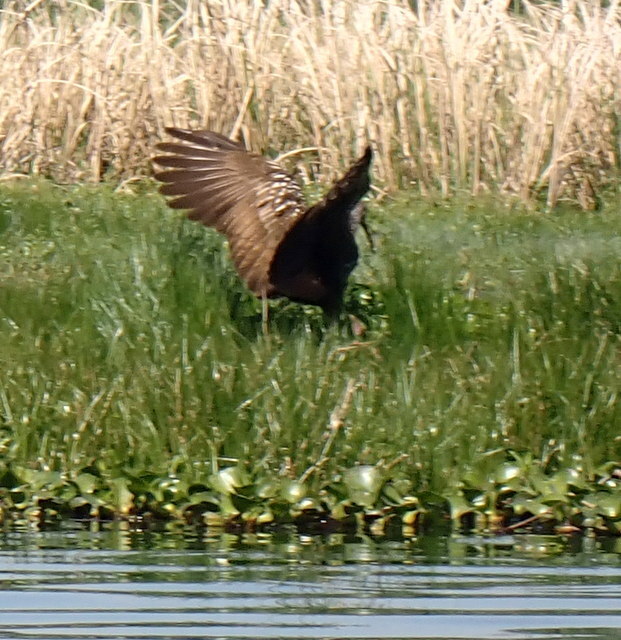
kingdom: Animalia
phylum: Chordata
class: Aves
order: Gruiformes
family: Aramidae
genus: Aramus
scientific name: Aramus guarauna
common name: Limpkin
